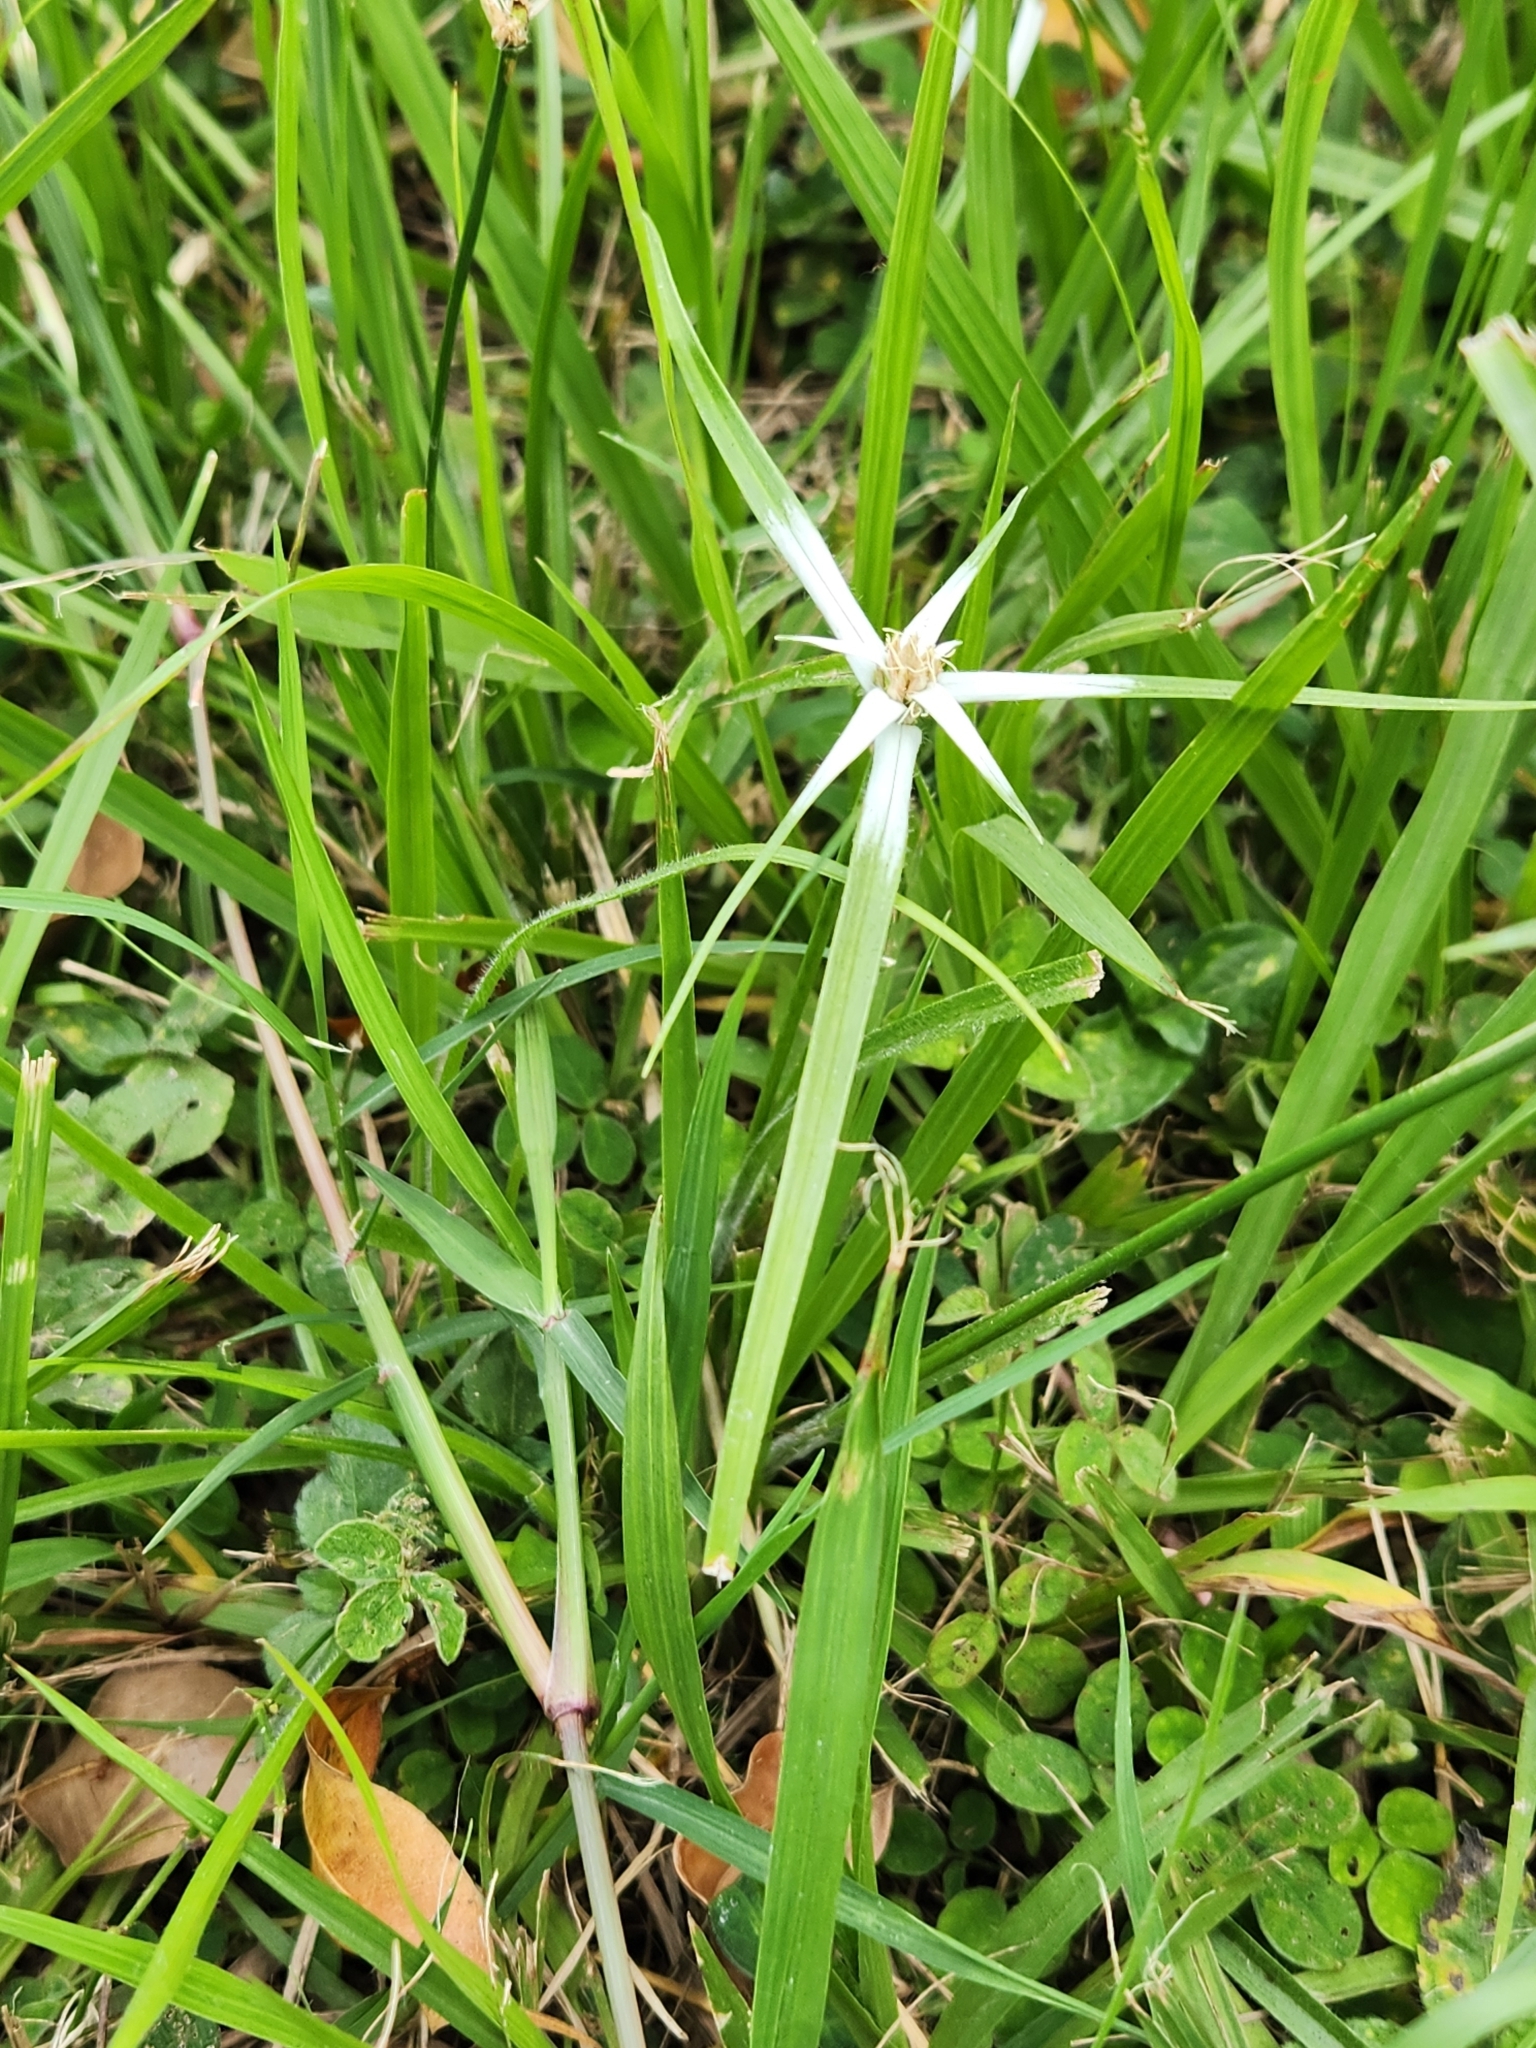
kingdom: Plantae
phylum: Tracheophyta
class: Liliopsida
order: Poales
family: Cyperaceae
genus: Rhynchospora
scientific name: Rhynchospora nervosa
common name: Star sedge
